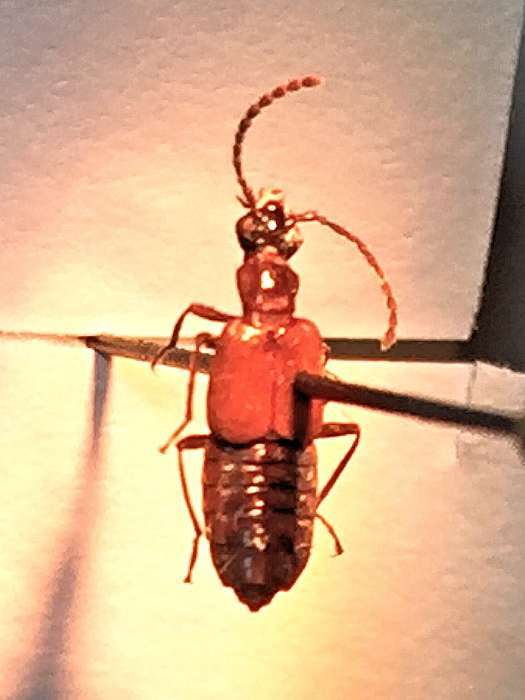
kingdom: Animalia
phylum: Arthropoda
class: Insecta
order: Coleoptera
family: Staphylinidae
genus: Deleaster
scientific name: Deleaster dichrous
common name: Rove beetle
